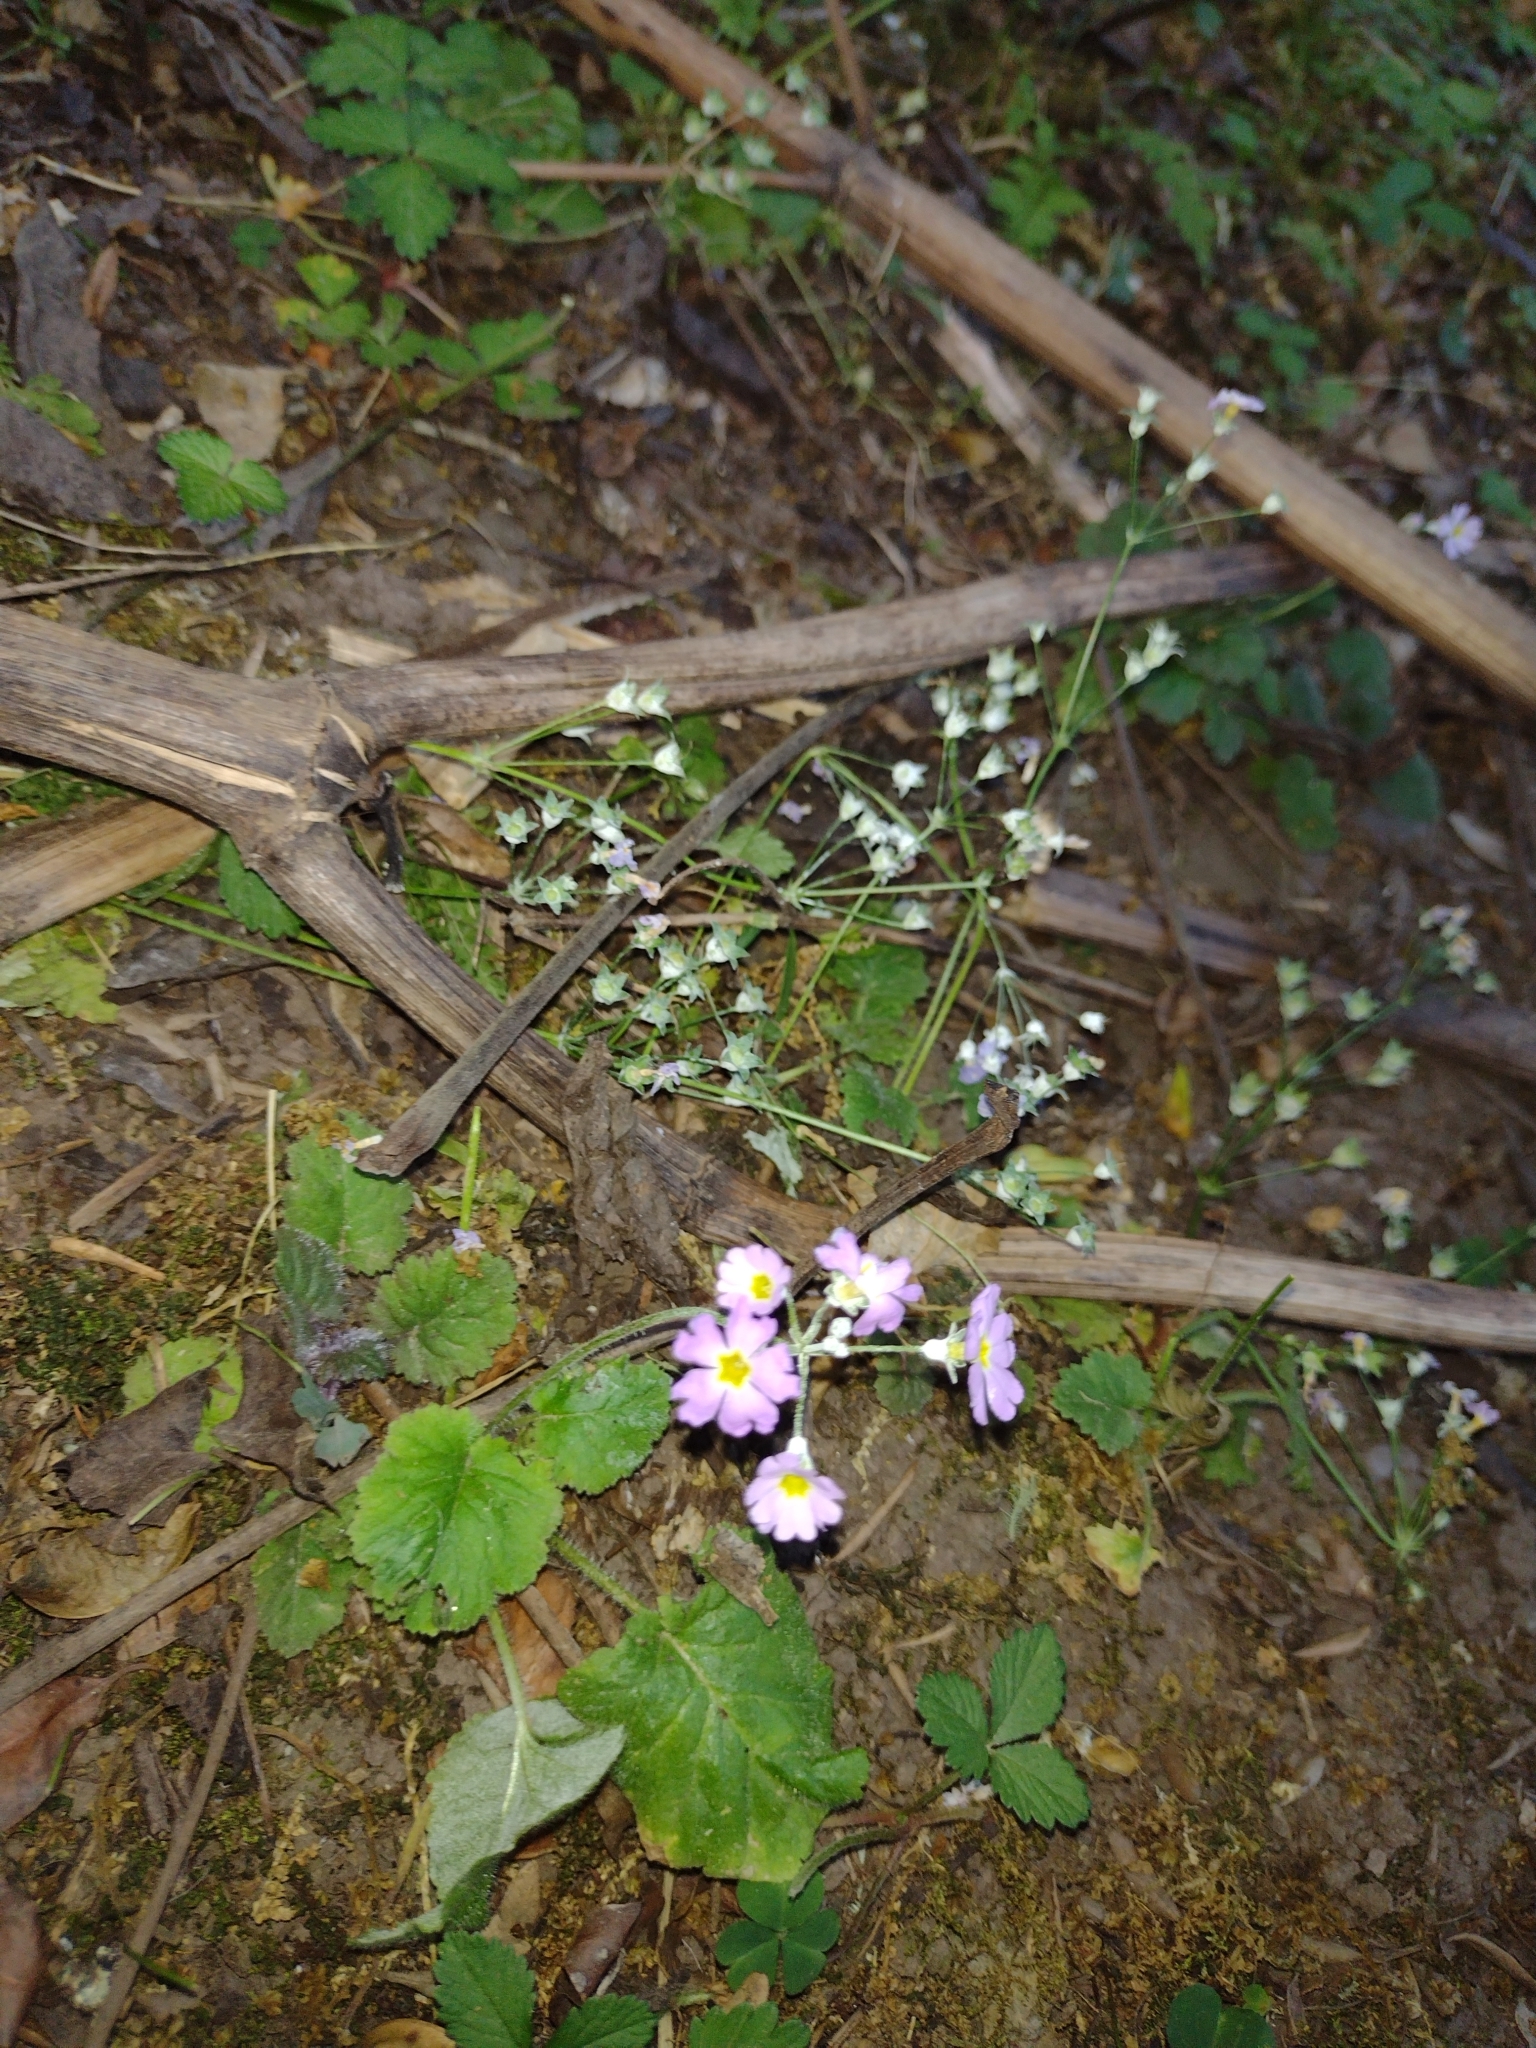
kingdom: Plantae
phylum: Tracheophyta
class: Magnoliopsida
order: Ericales
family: Primulaceae
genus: Primula
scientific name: Primula malacoides
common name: Baby primrose
